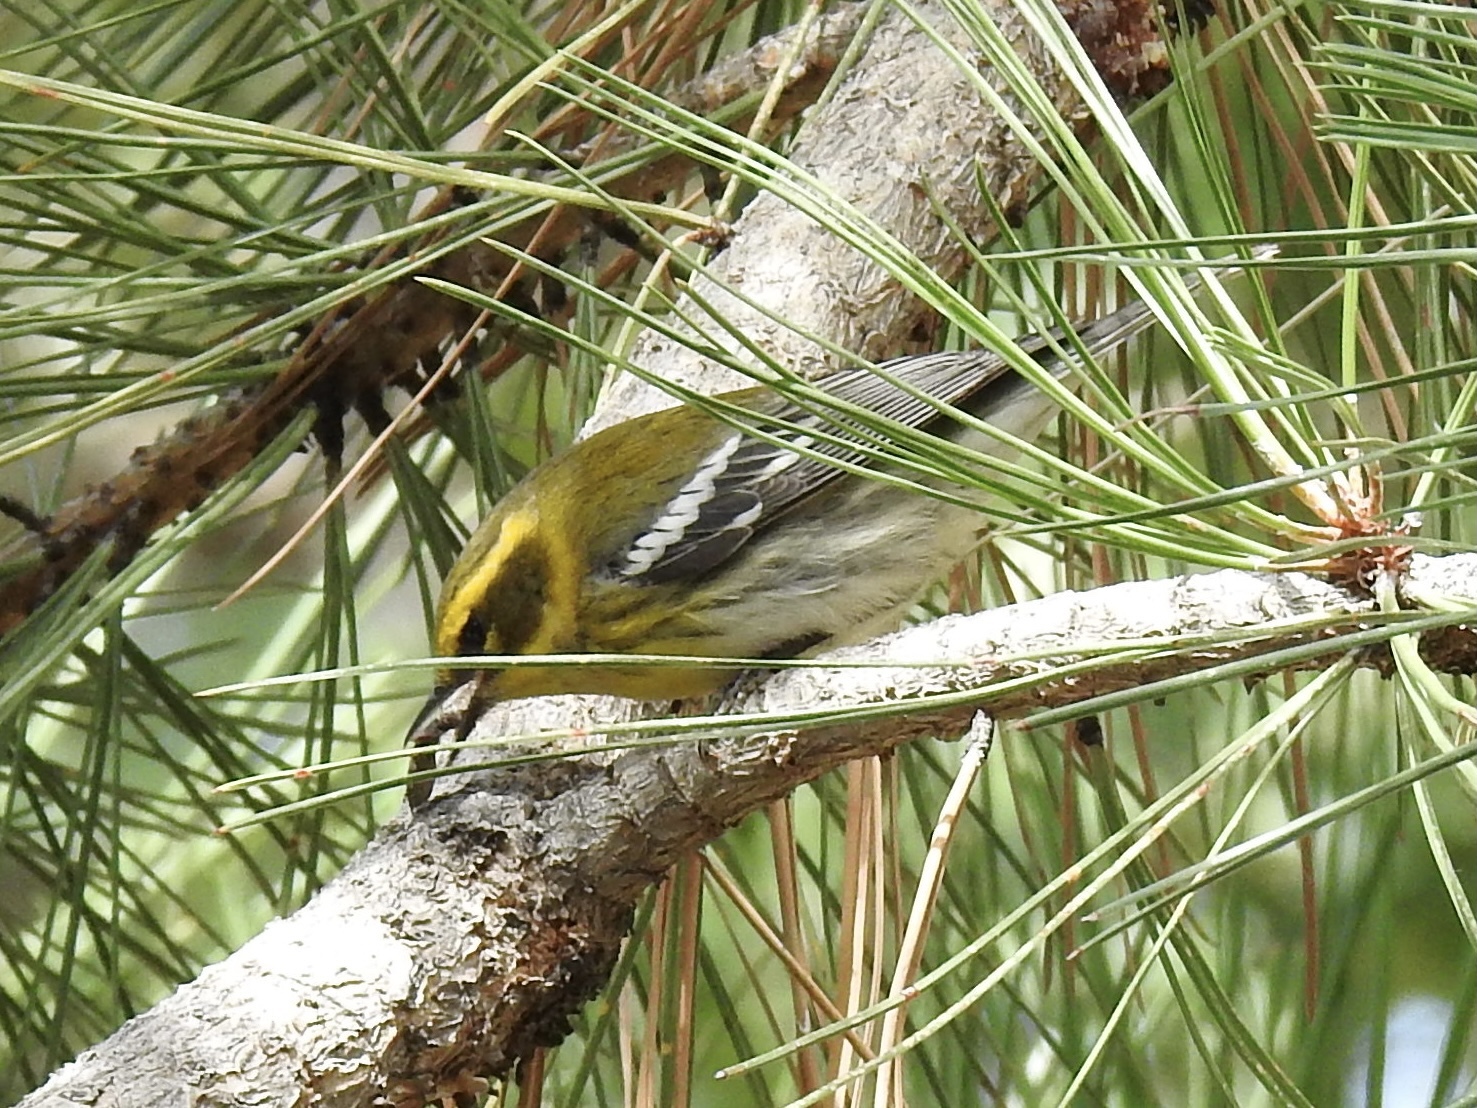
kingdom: Animalia
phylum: Chordata
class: Aves
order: Passeriformes
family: Parulidae
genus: Setophaga
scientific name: Setophaga townsendi
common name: Townsend's warbler
